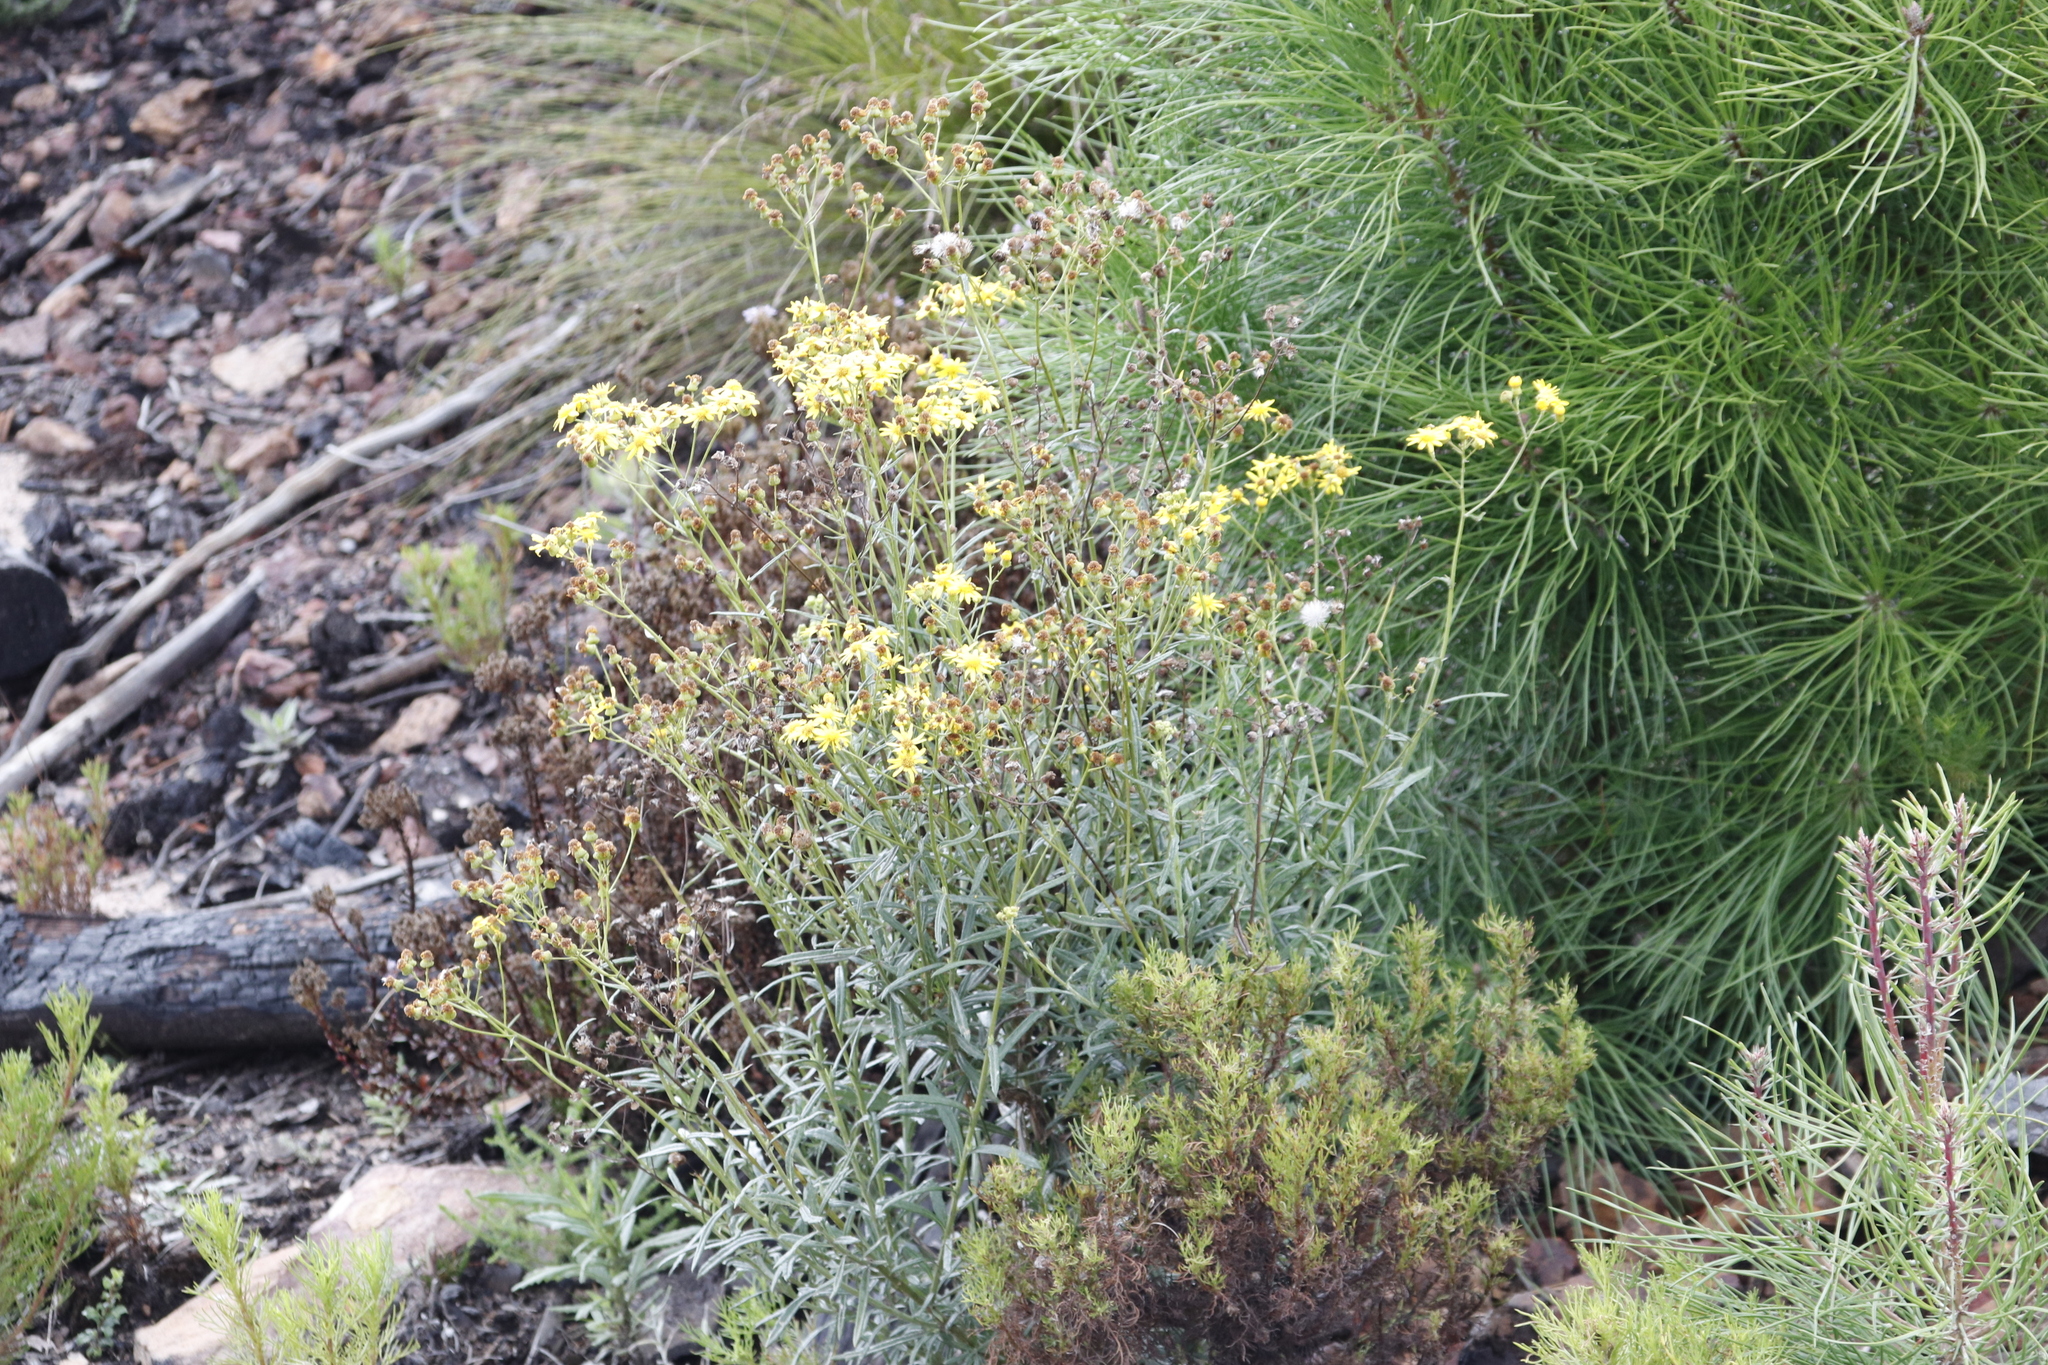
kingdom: Plantae
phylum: Tracheophyta
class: Magnoliopsida
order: Asterales
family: Asteraceae
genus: Senecio
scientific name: Senecio pterophorus
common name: Shoddy ragwort
